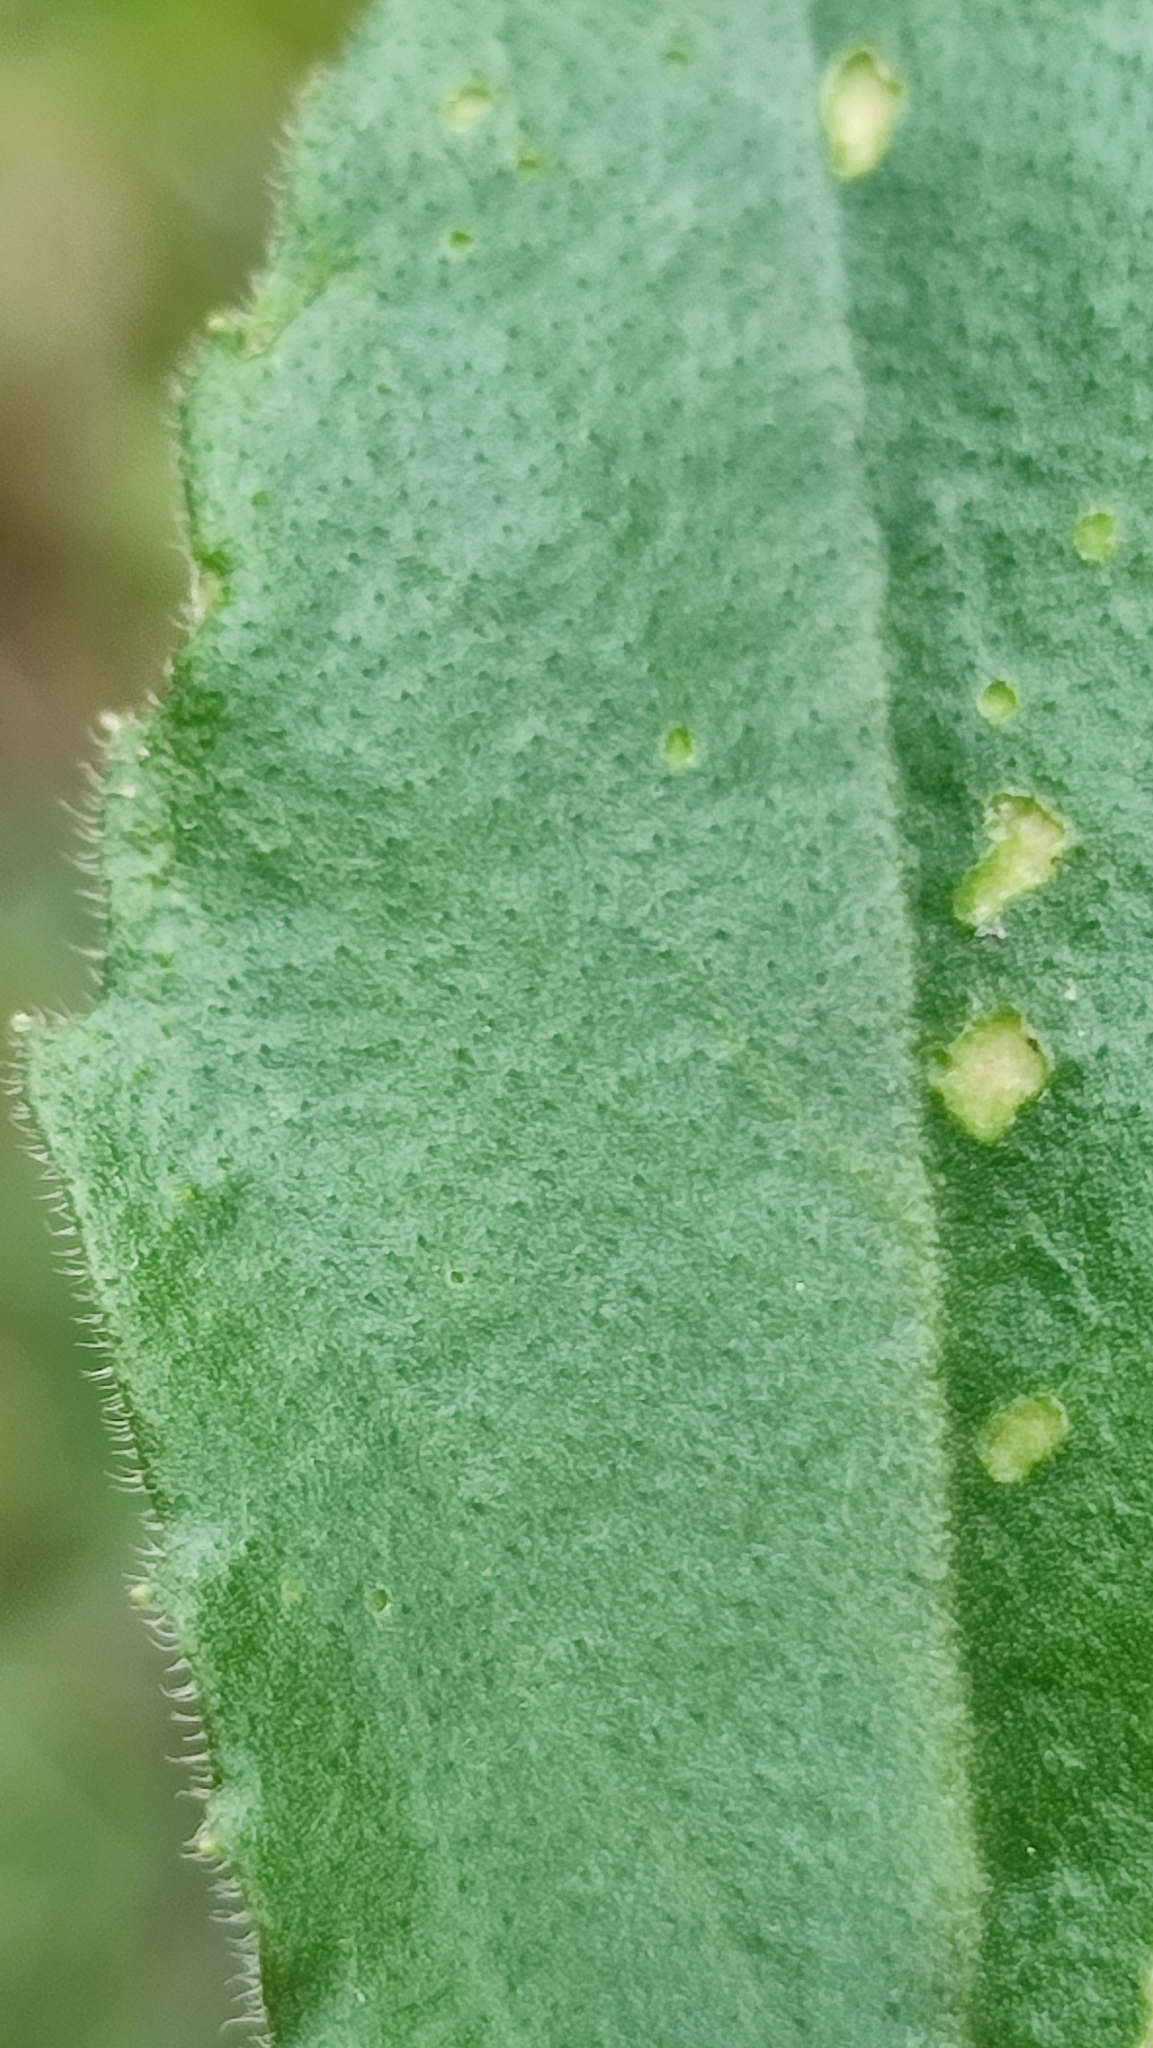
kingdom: Plantae
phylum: Tracheophyta
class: Magnoliopsida
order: Asterales
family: Asteraceae
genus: Bellis
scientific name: Bellis sylvestris
